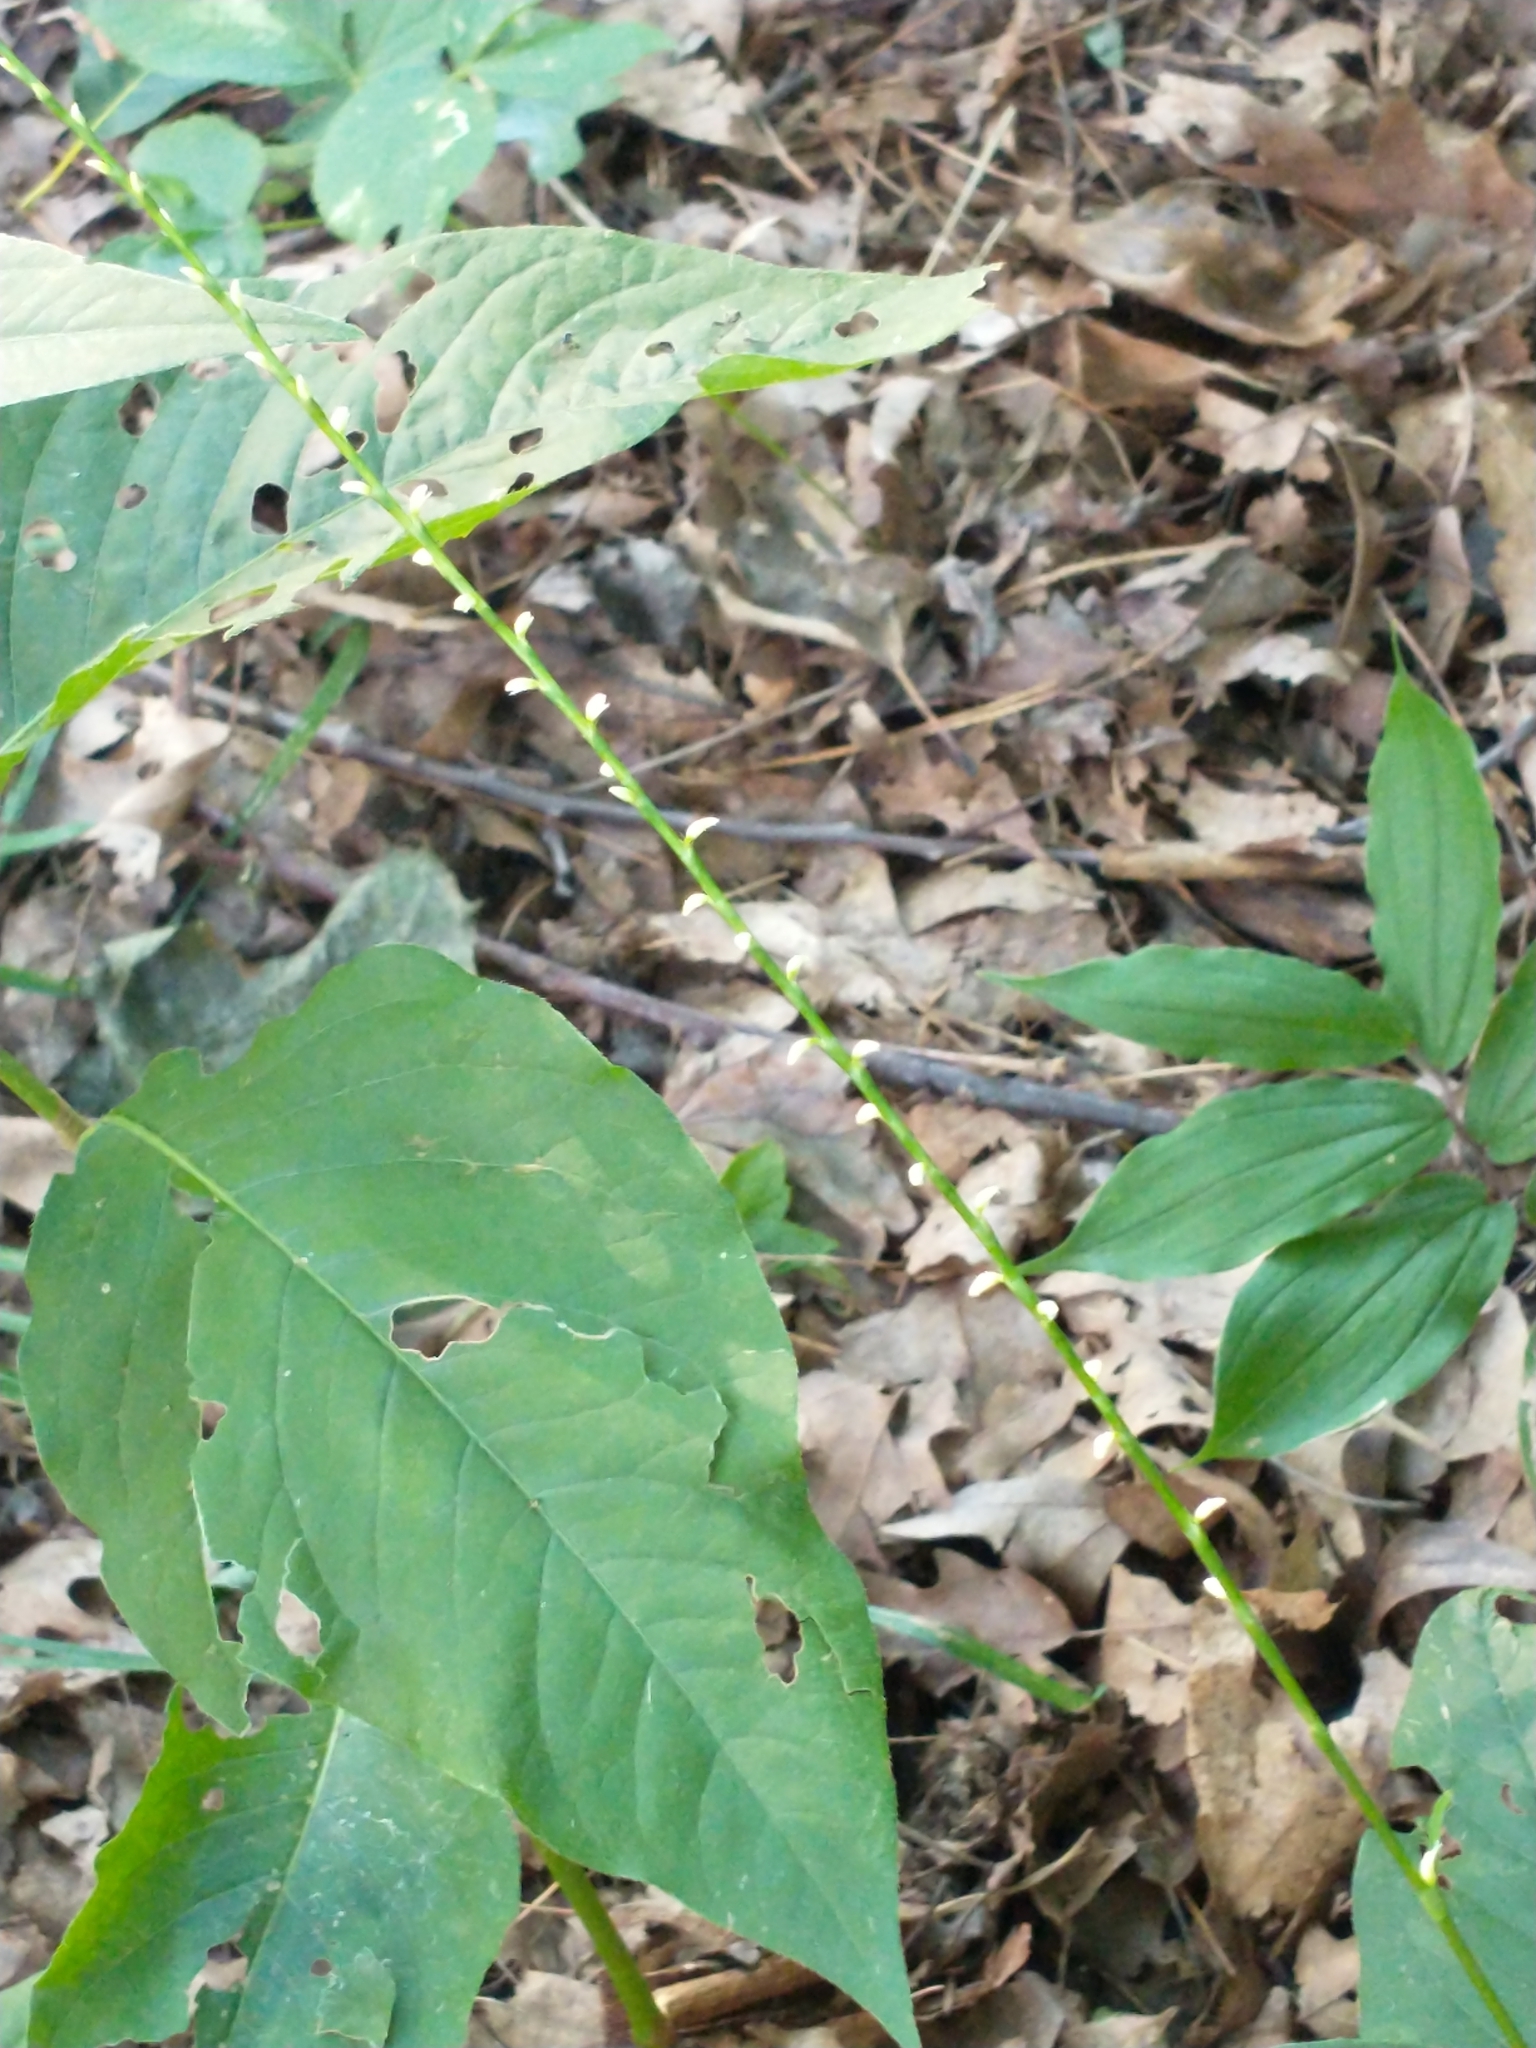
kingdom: Plantae
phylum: Tracheophyta
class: Magnoliopsida
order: Caryophyllales
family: Polygonaceae
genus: Persicaria
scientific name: Persicaria virginiana
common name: Jumpseed
